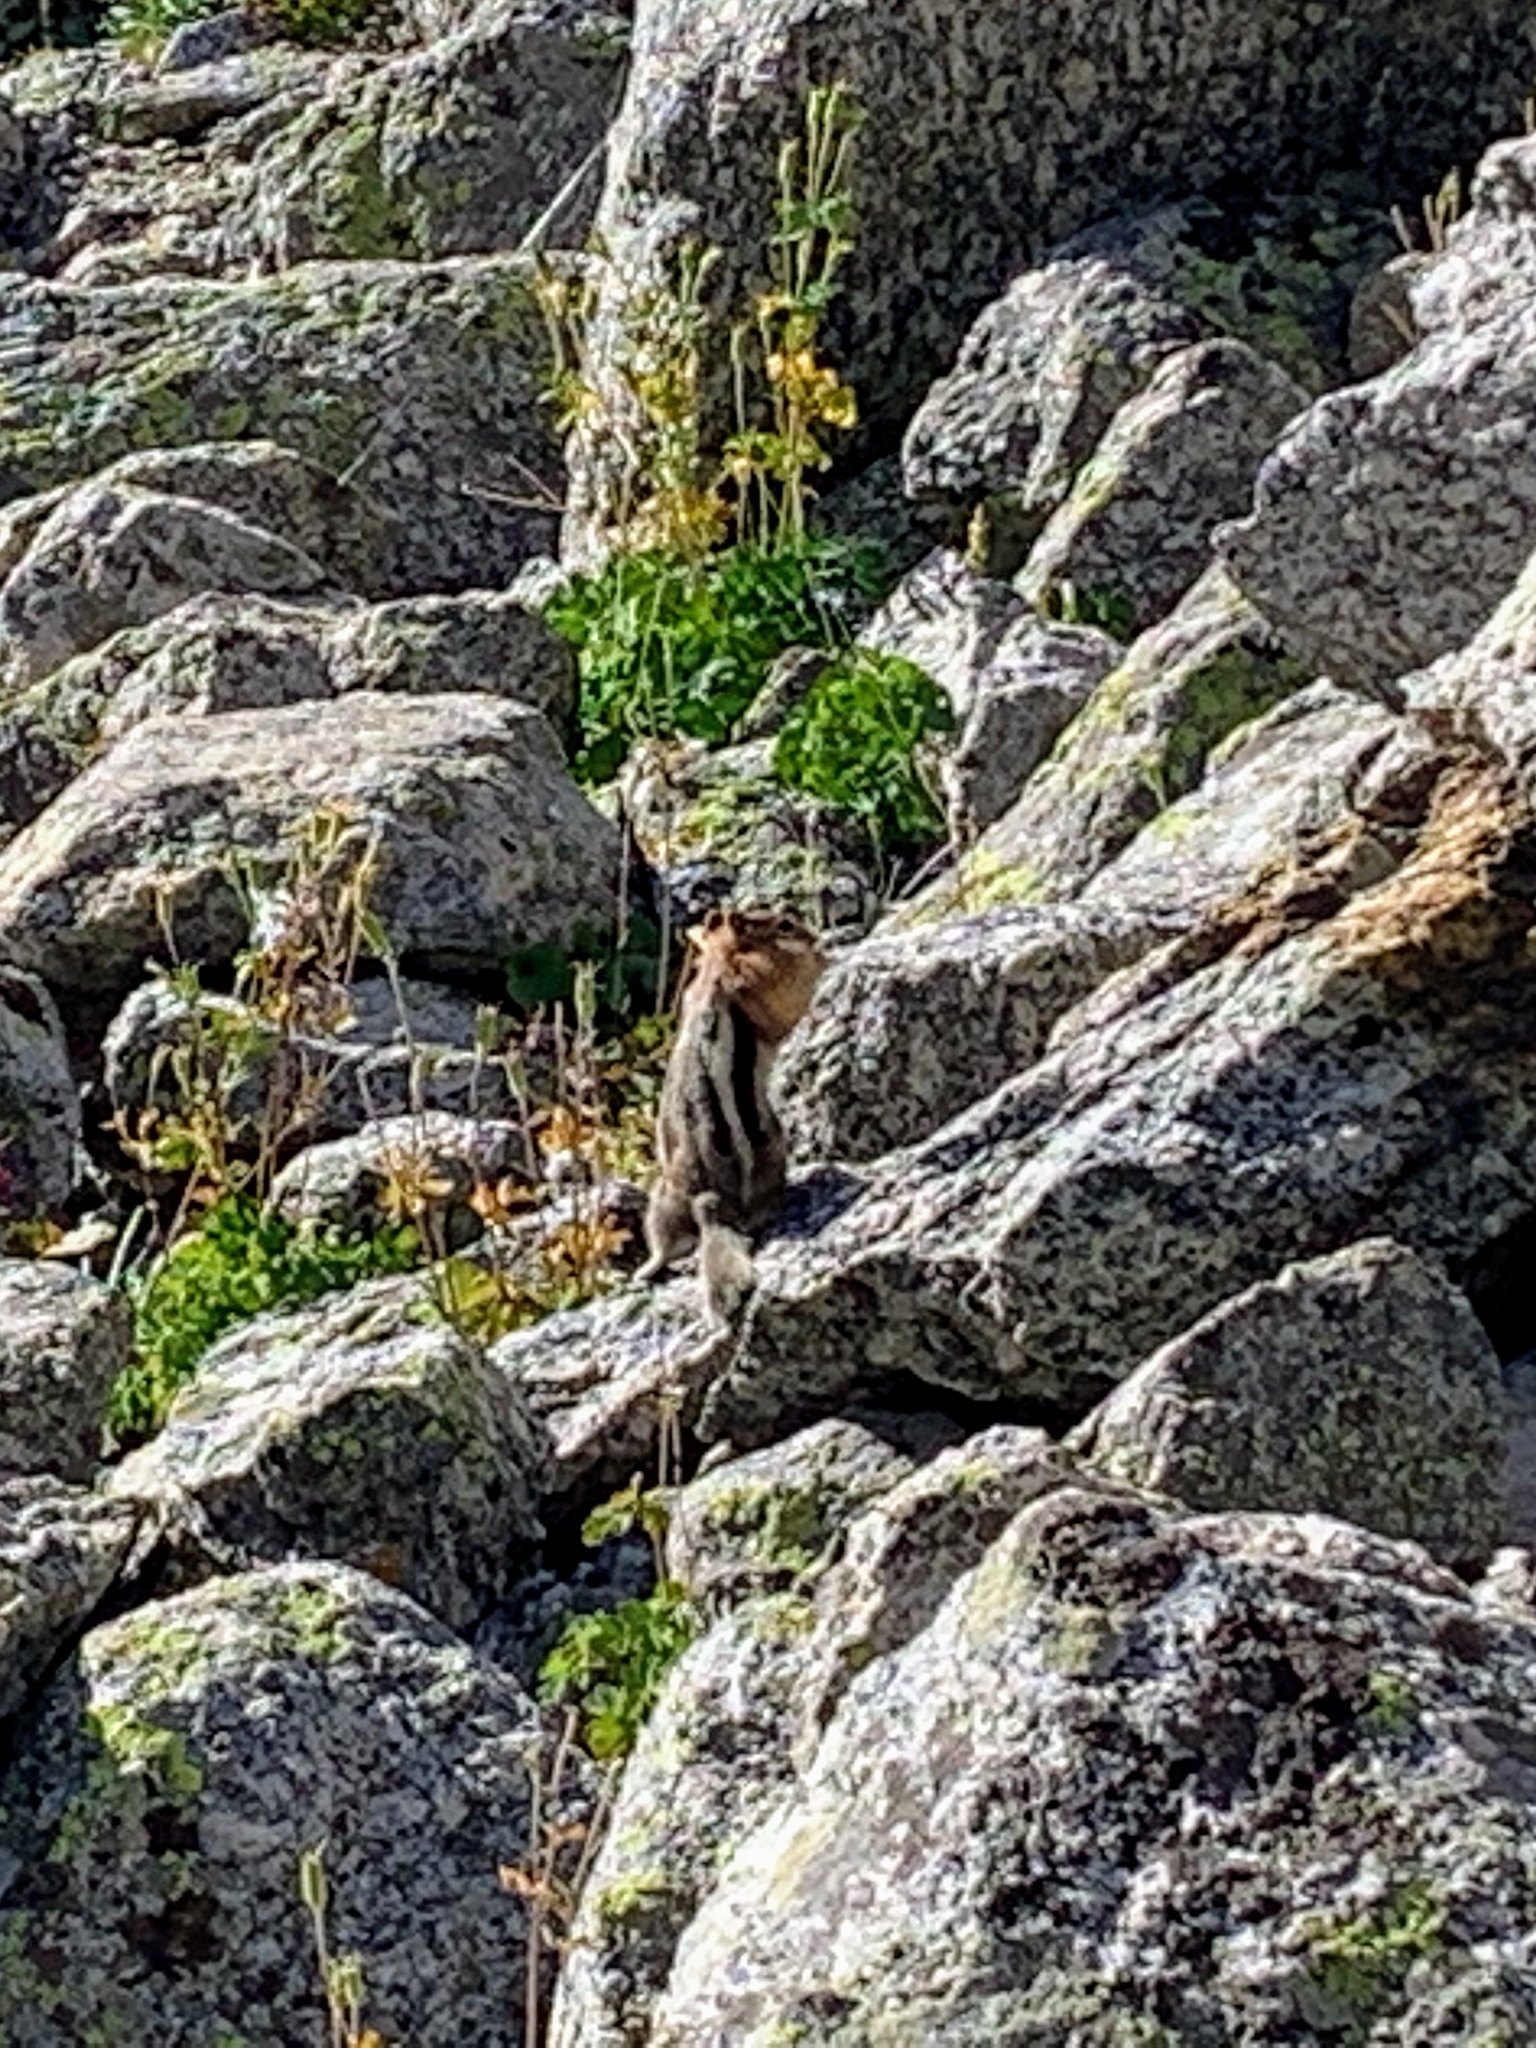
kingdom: Animalia
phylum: Chordata
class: Mammalia
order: Rodentia
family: Sciuridae
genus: Callospermophilus
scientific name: Callospermophilus lateralis
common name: Golden-mantled ground squirrel
